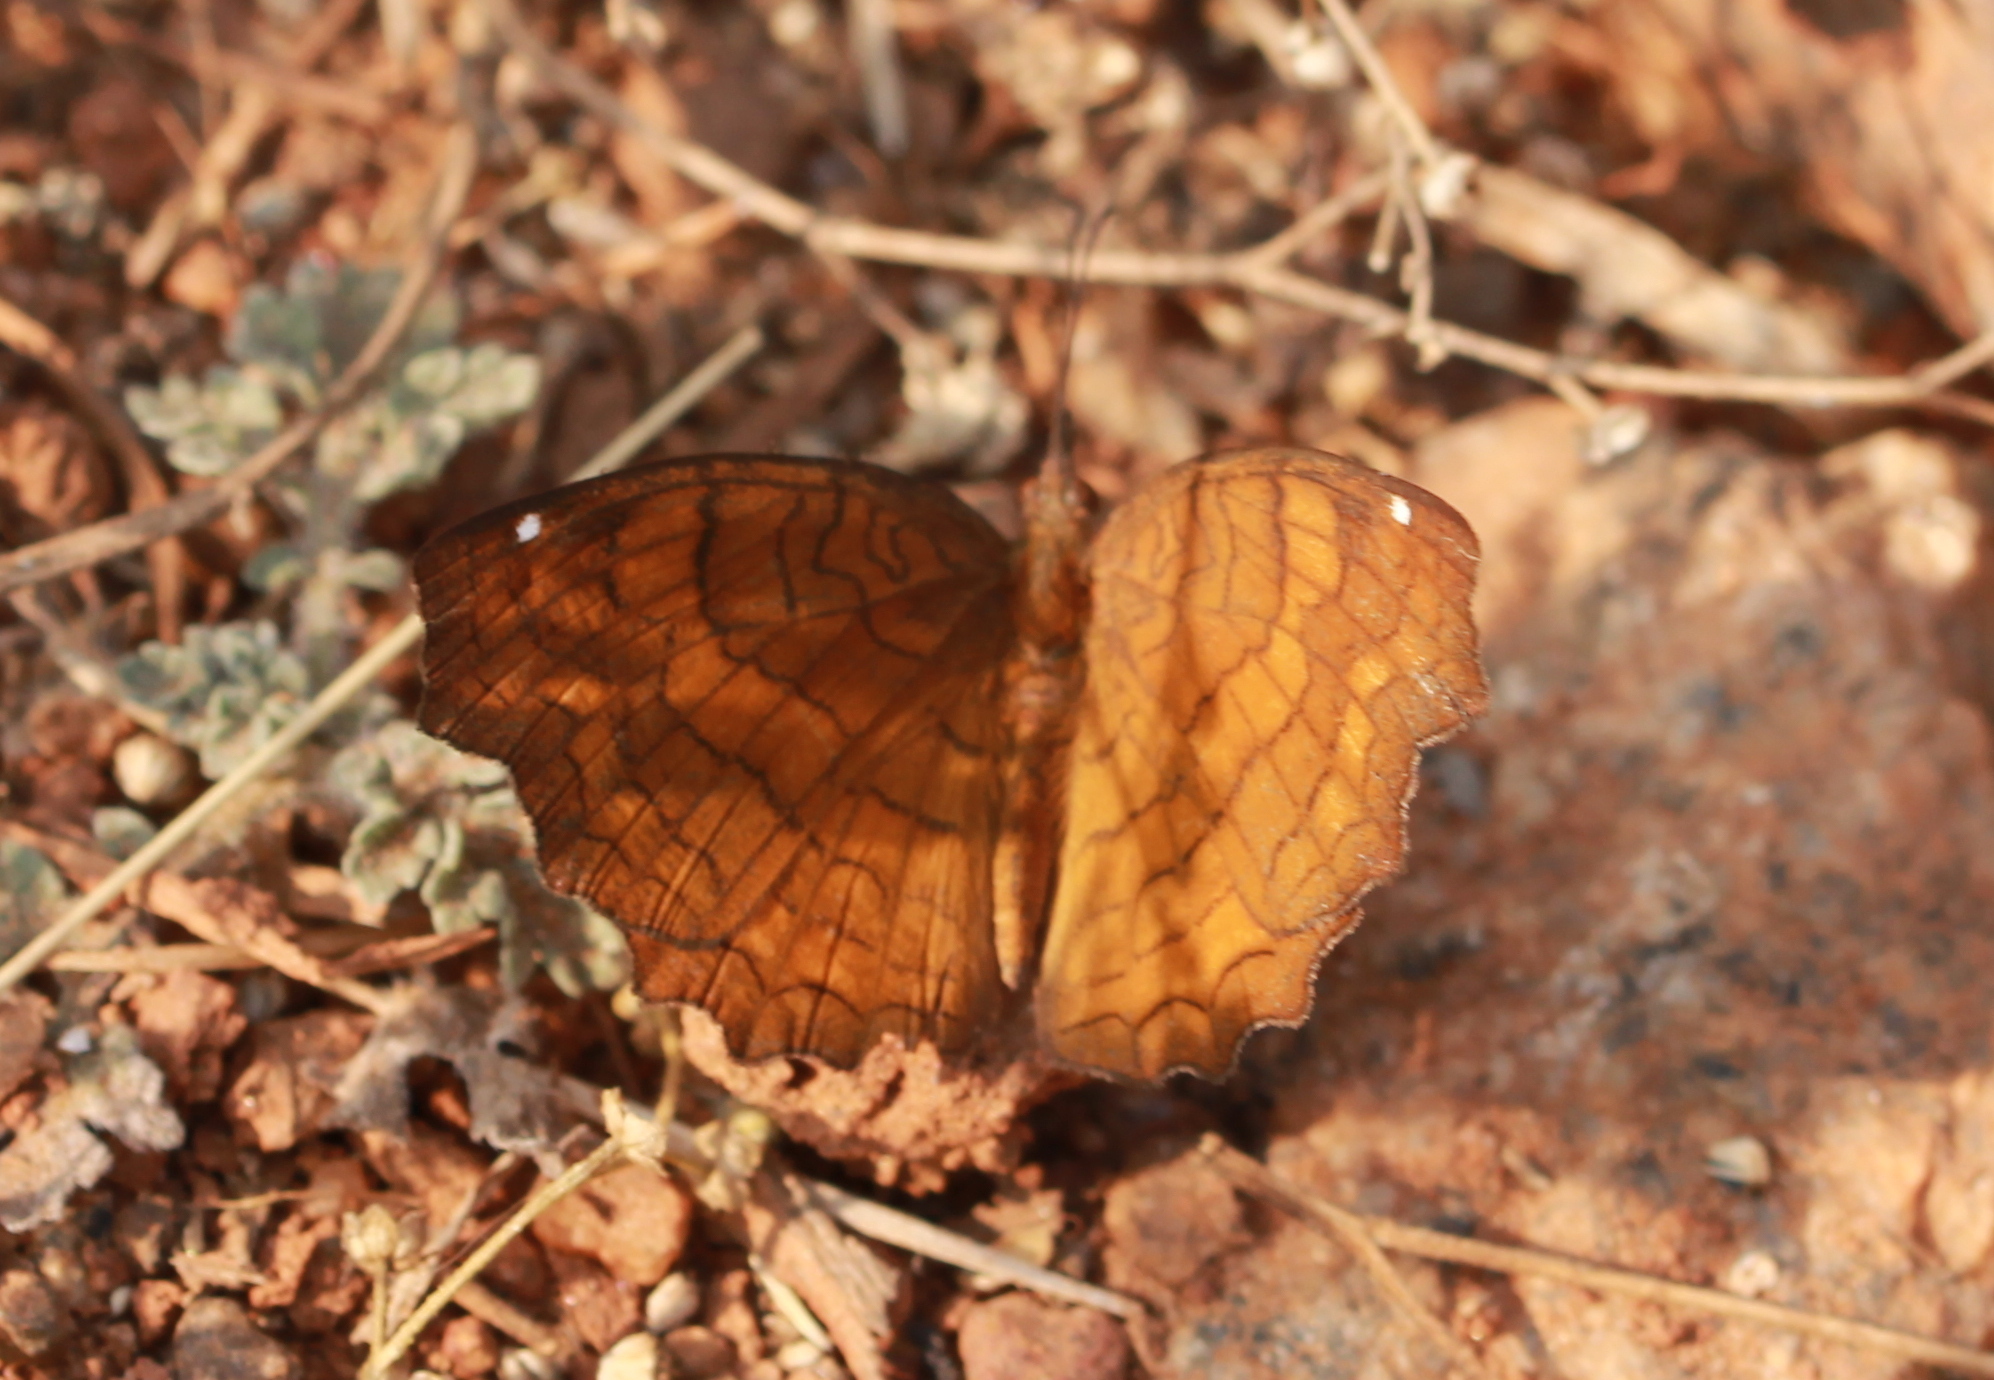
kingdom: Animalia
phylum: Arthropoda
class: Insecta
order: Lepidoptera
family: Nymphalidae
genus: Ariadne
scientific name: Ariadne ariadne
